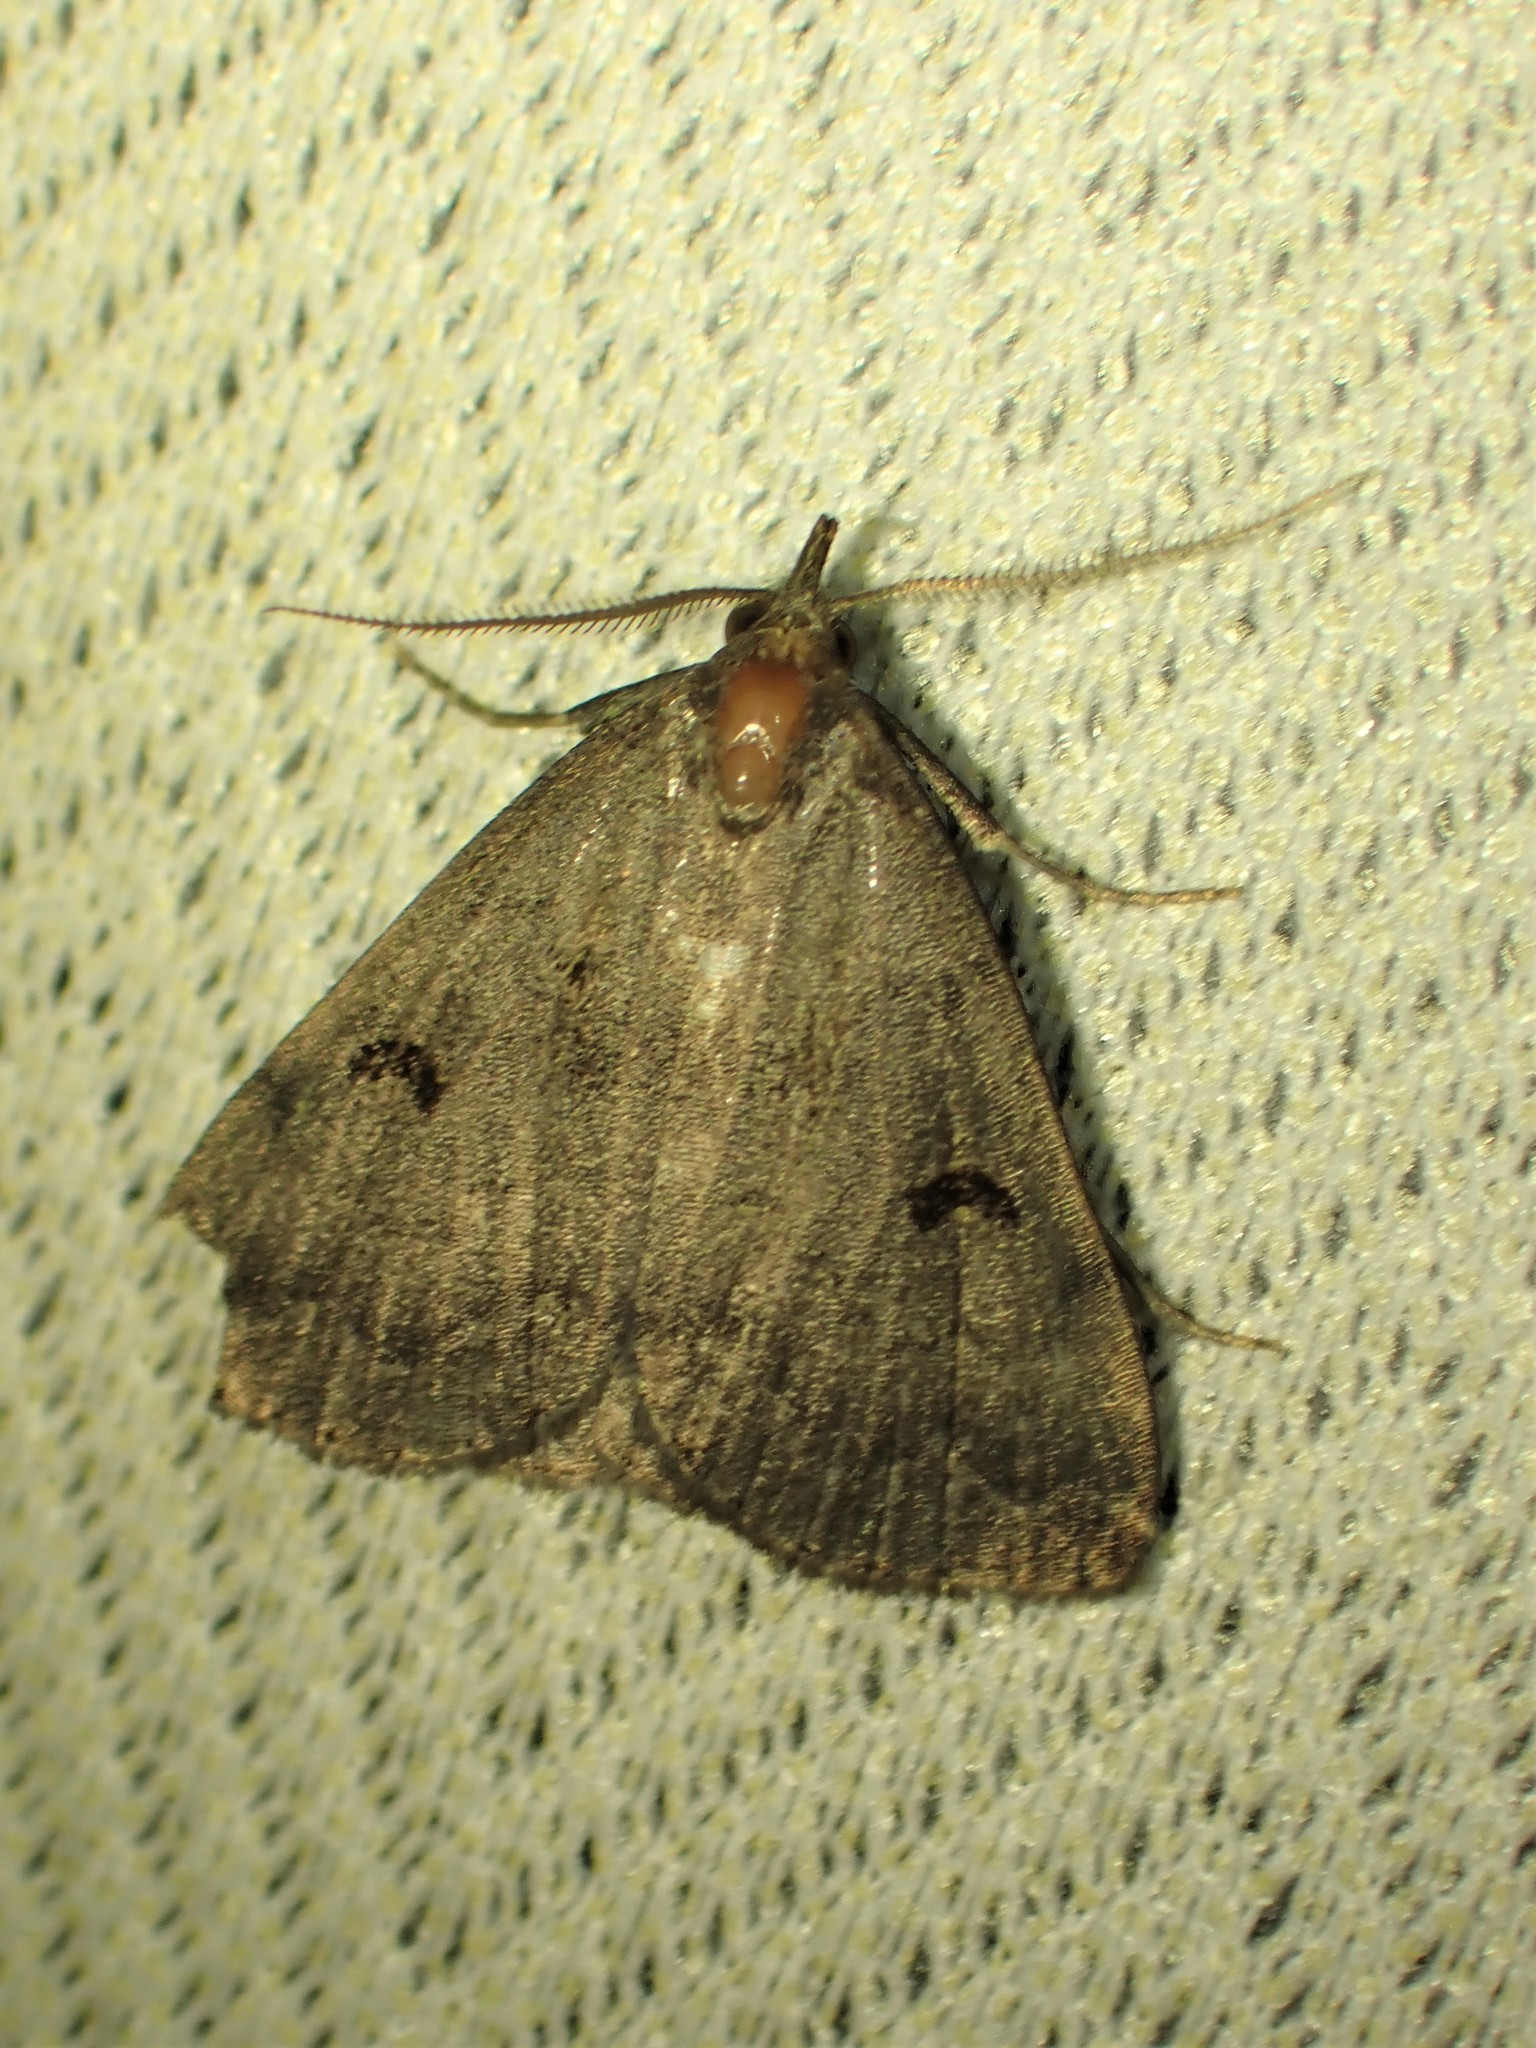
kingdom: Animalia
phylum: Arthropoda
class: Insecta
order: Lepidoptera
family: Erebidae
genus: Phalaenostola
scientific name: Phalaenostola hanhami
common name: Hanham's owlet
